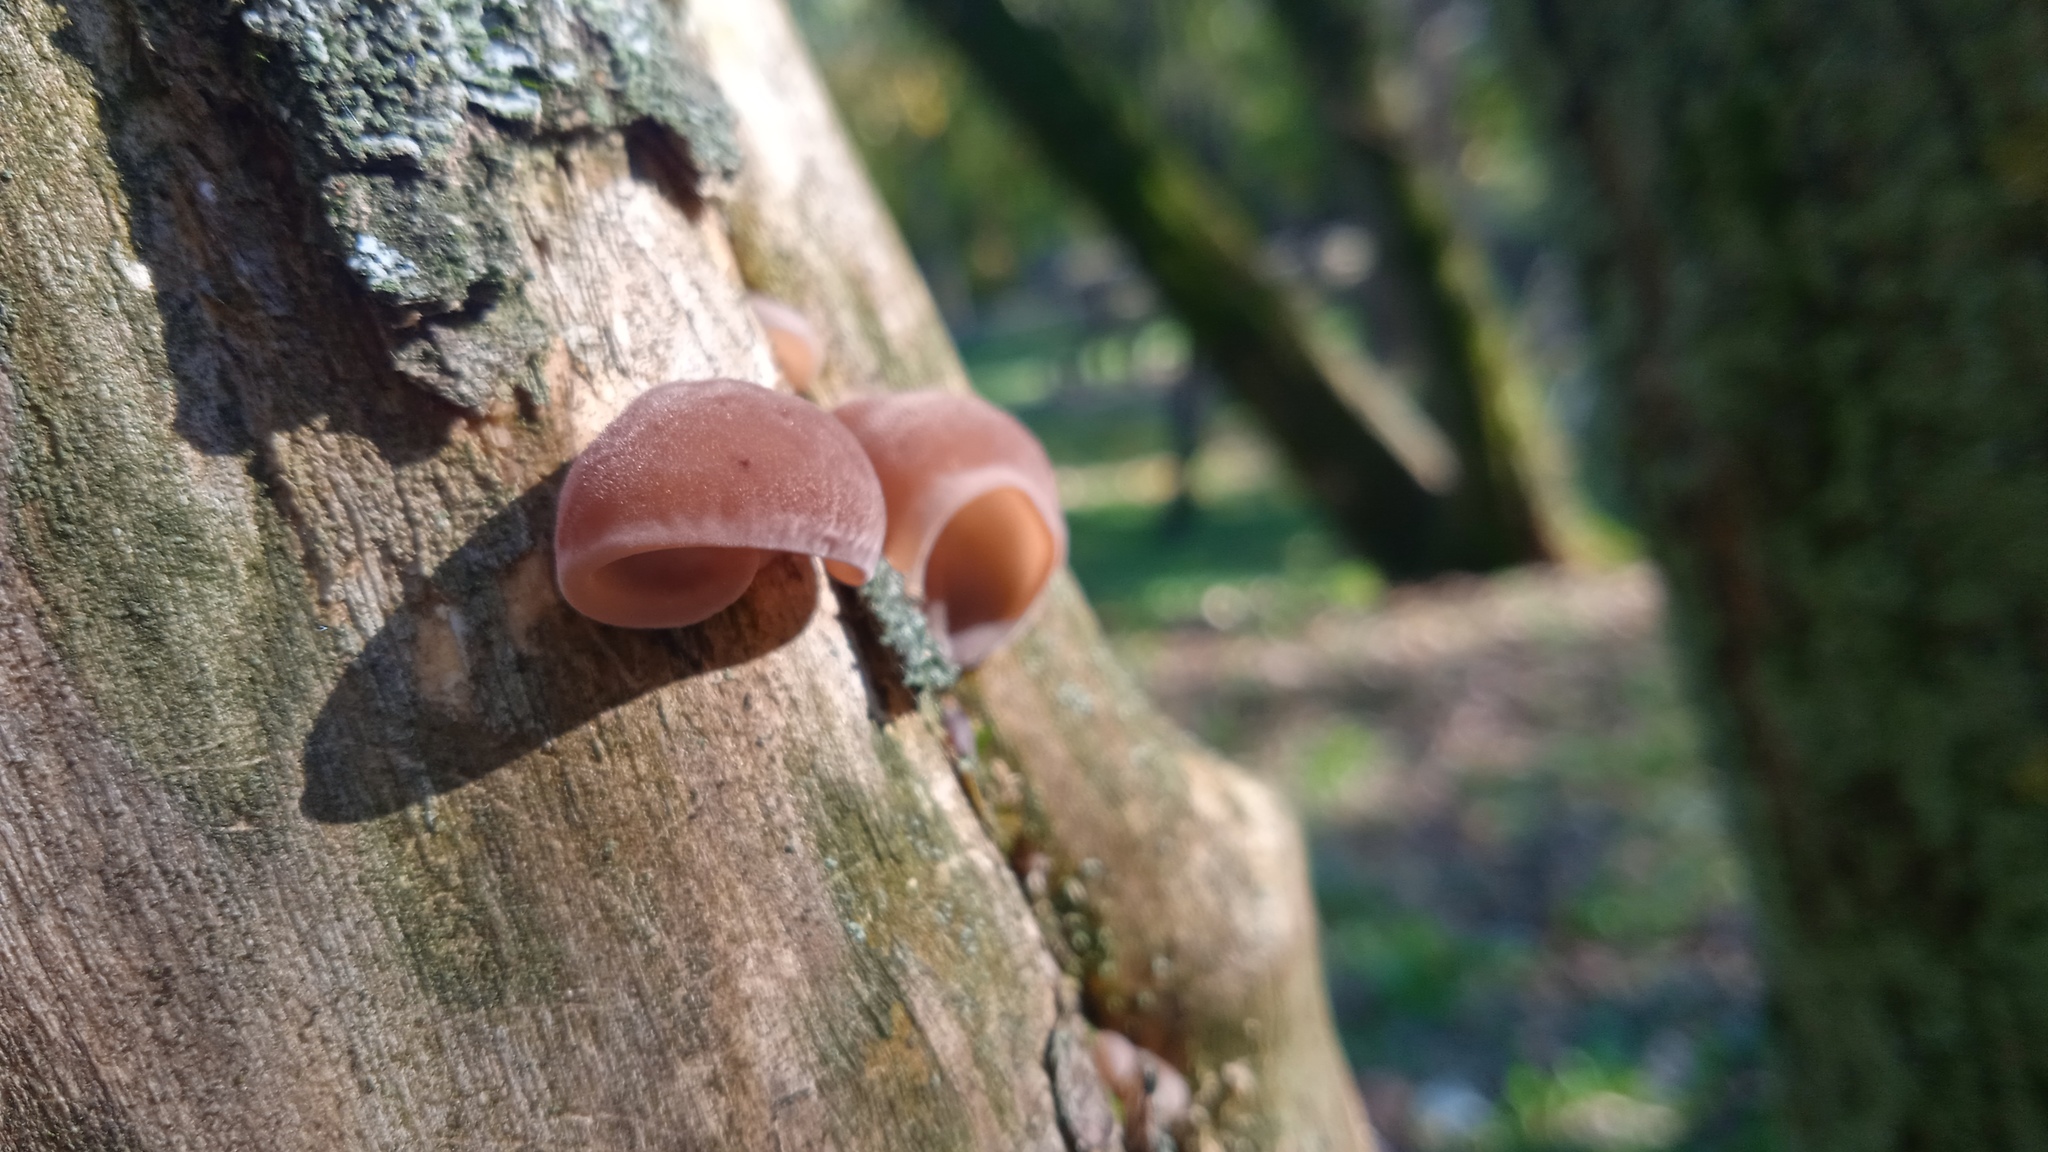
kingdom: Fungi
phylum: Basidiomycota
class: Agaricomycetes
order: Auriculariales
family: Auriculariaceae
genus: Auricularia
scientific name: Auricularia auricula-judae
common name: Jelly ear
